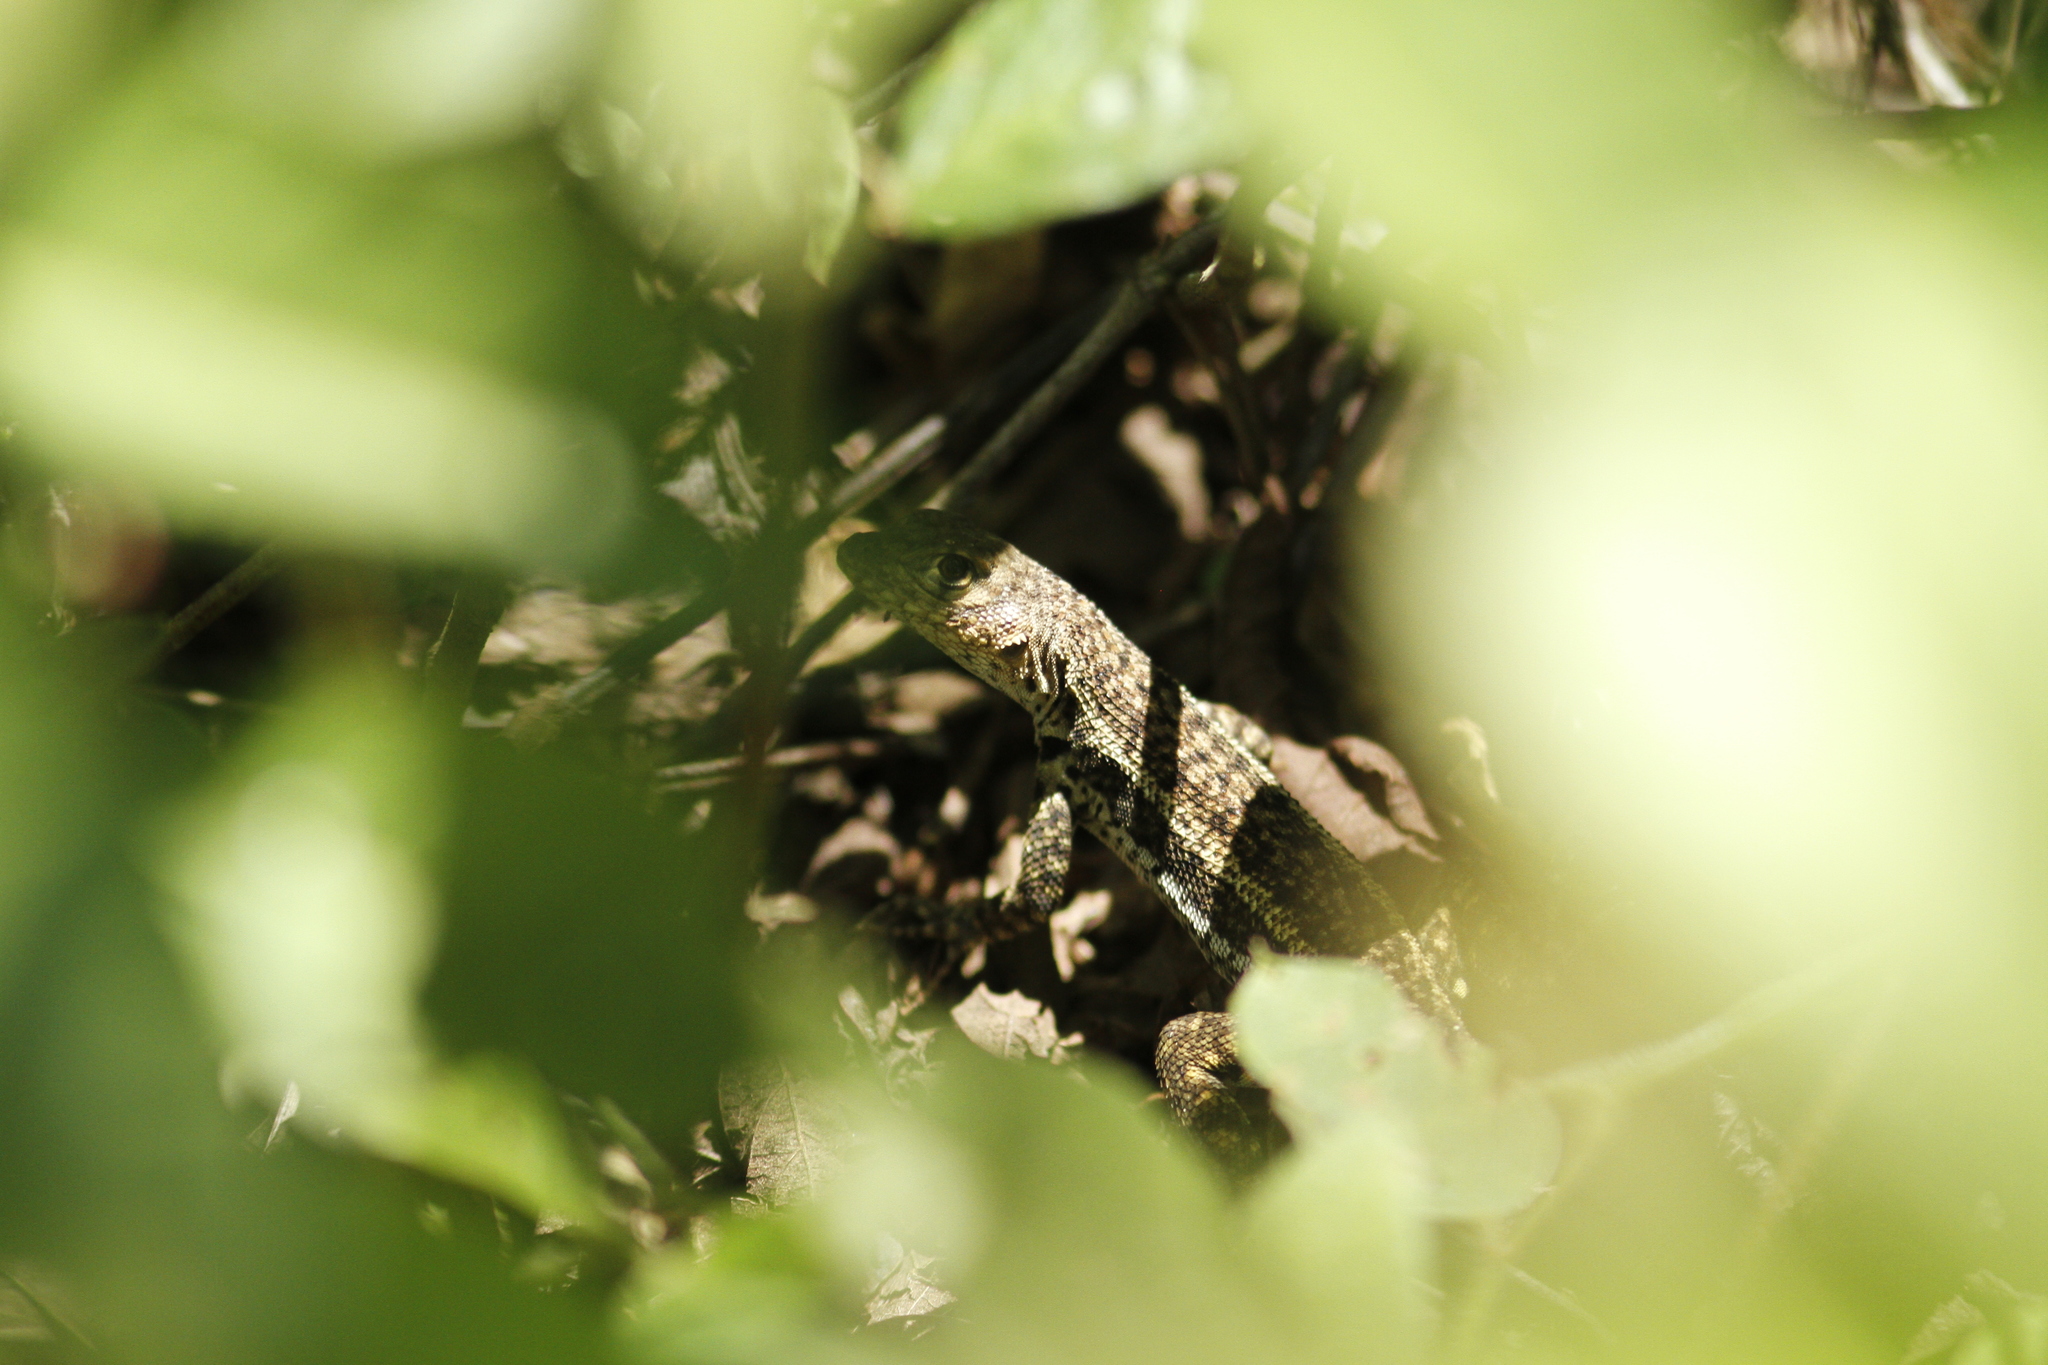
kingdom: Animalia
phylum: Chordata
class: Squamata
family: Tropiduridae
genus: Microlophus
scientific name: Microlophus albemarlensis
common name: Galapagos lava lizard
